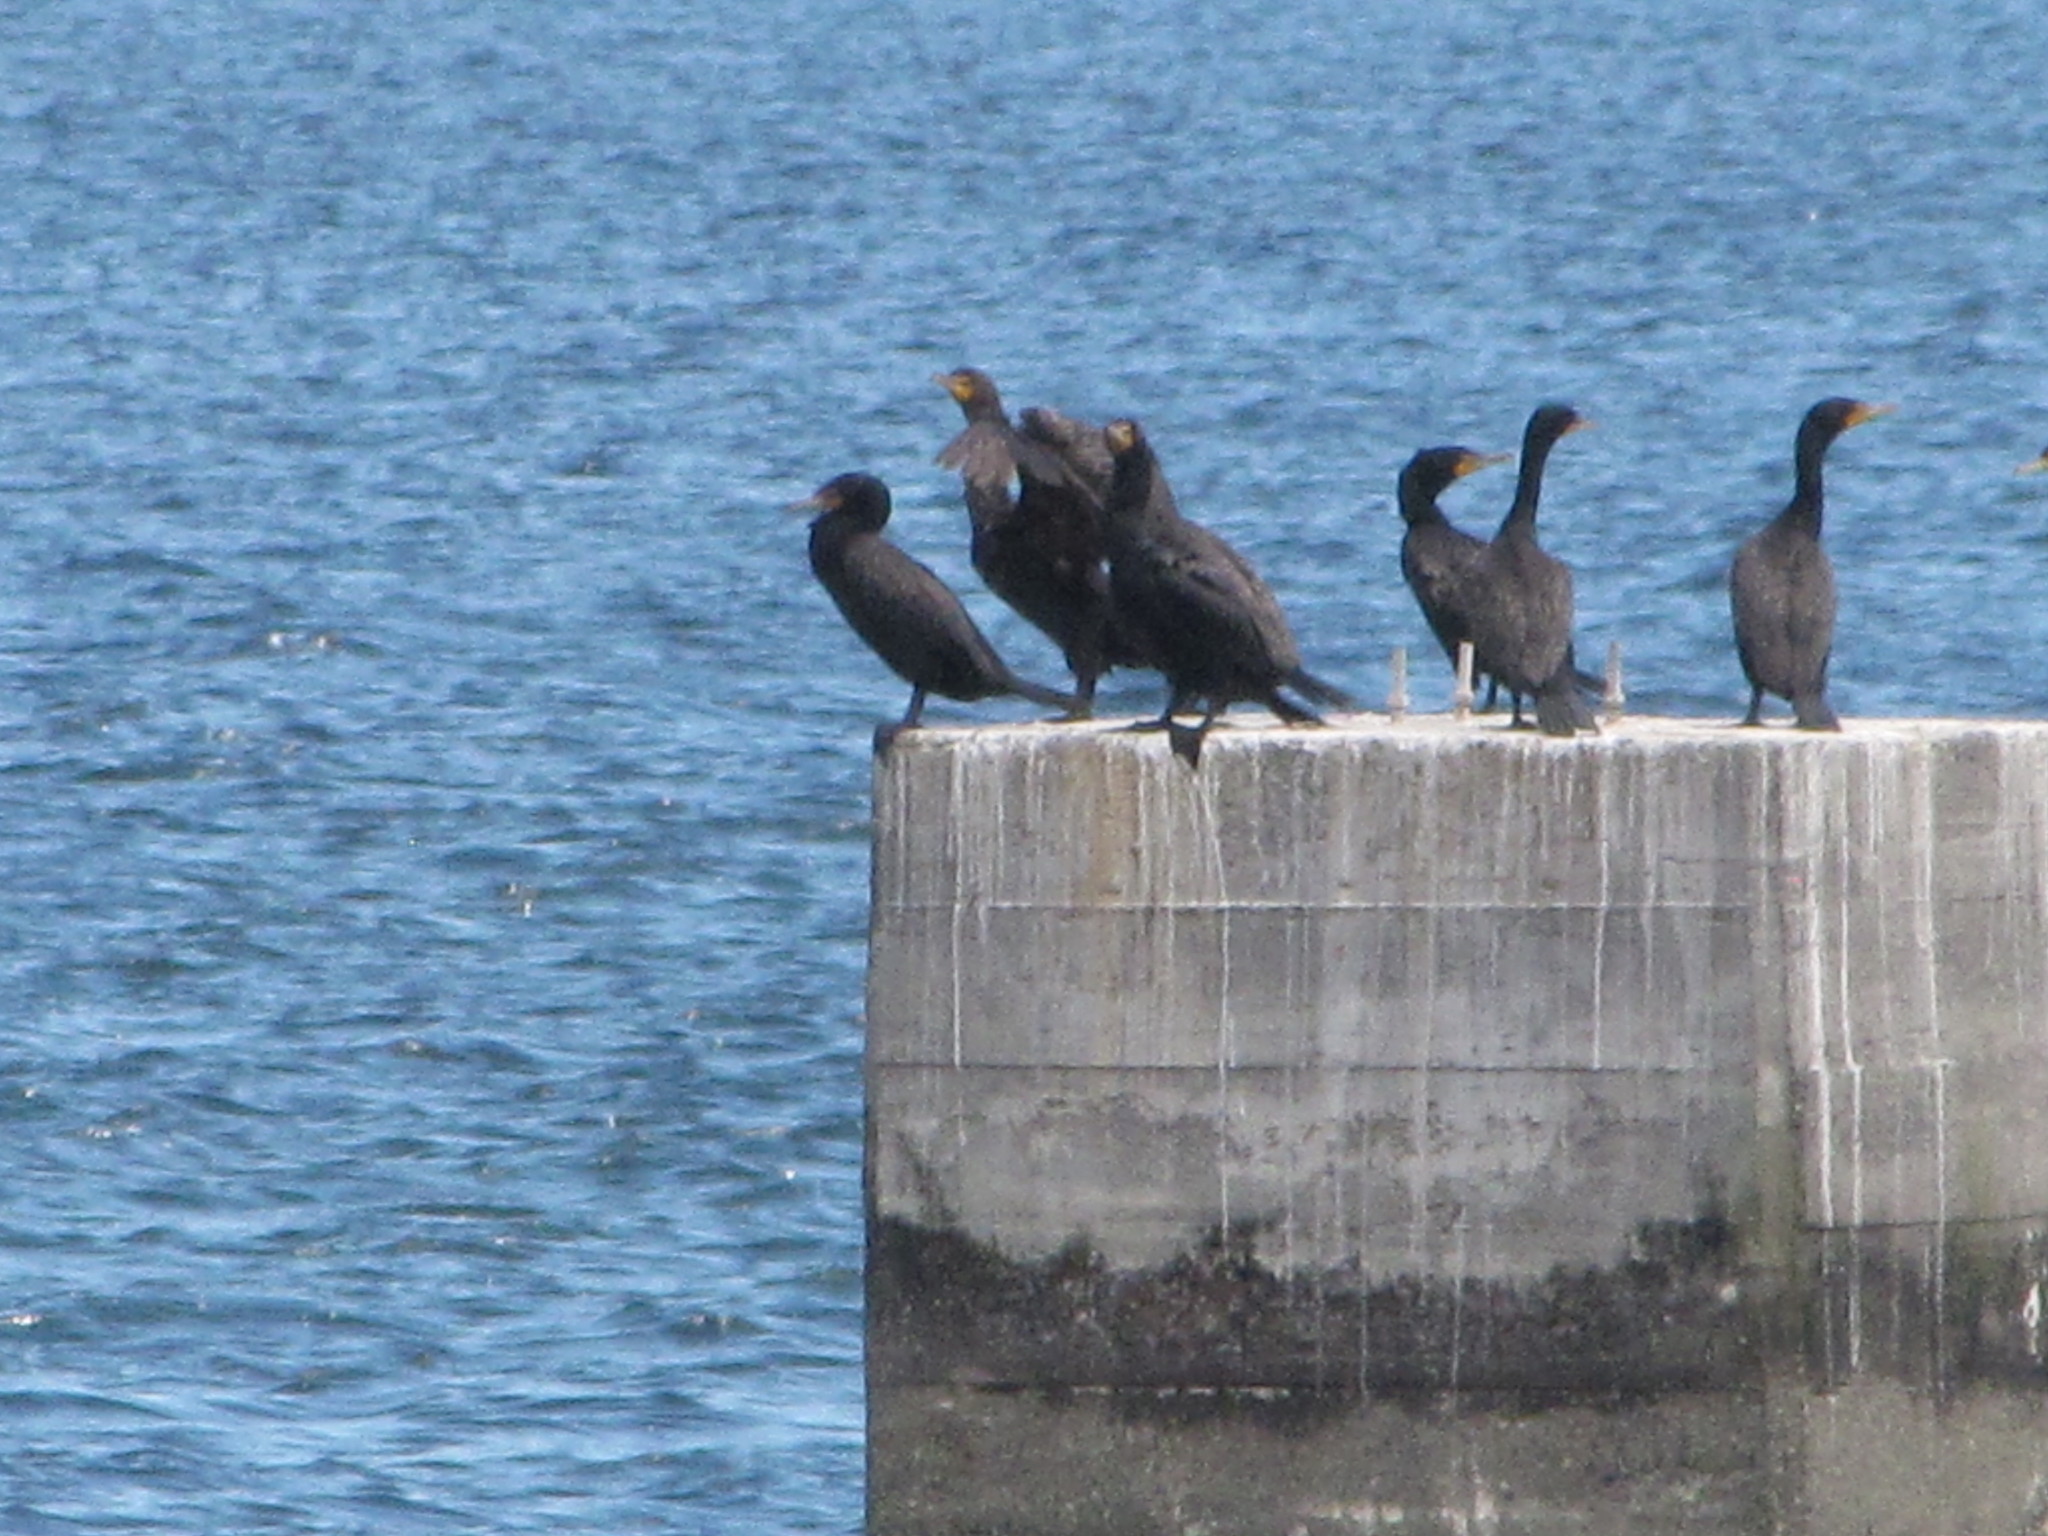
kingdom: Animalia
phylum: Chordata
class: Aves
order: Suliformes
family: Phalacrocoracidae
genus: Phalacrocorax
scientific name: Phalacrocorax auritus
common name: Double-crested cormorant
